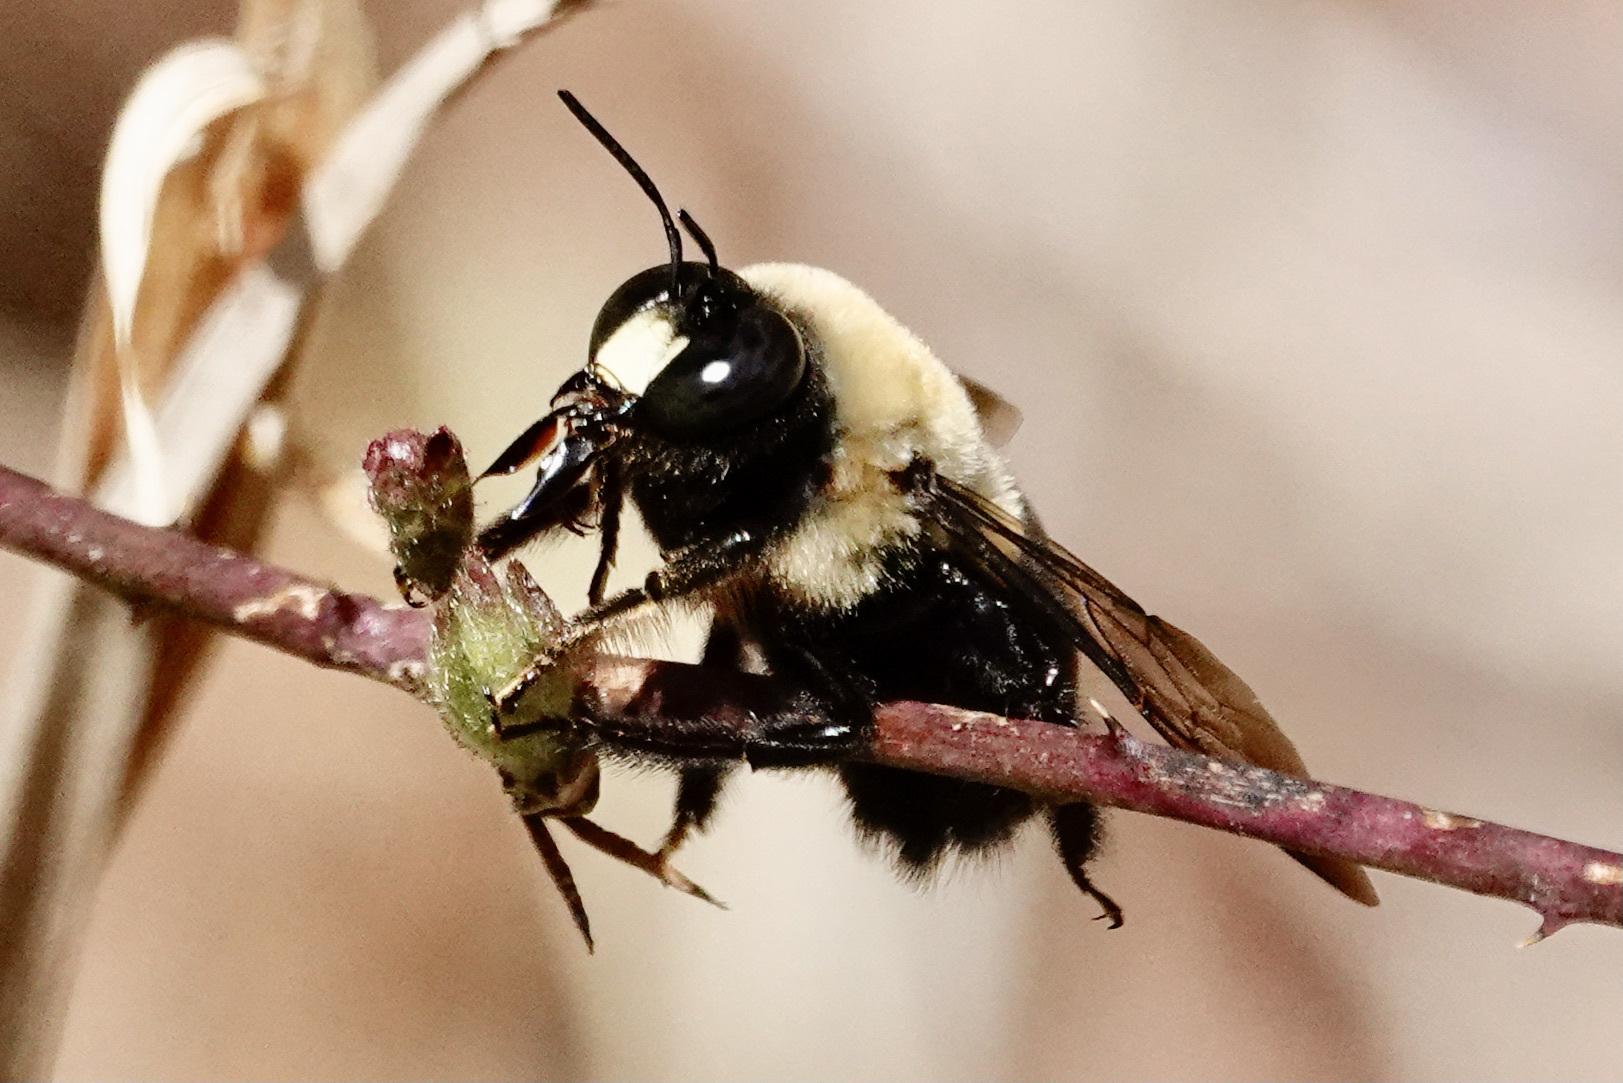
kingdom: Animalia
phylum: Arthropoda
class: Insecta
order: Hymenoptera
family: Apidae
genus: Xylocopa
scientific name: Xylocopa virginica
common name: Carpenter bee
